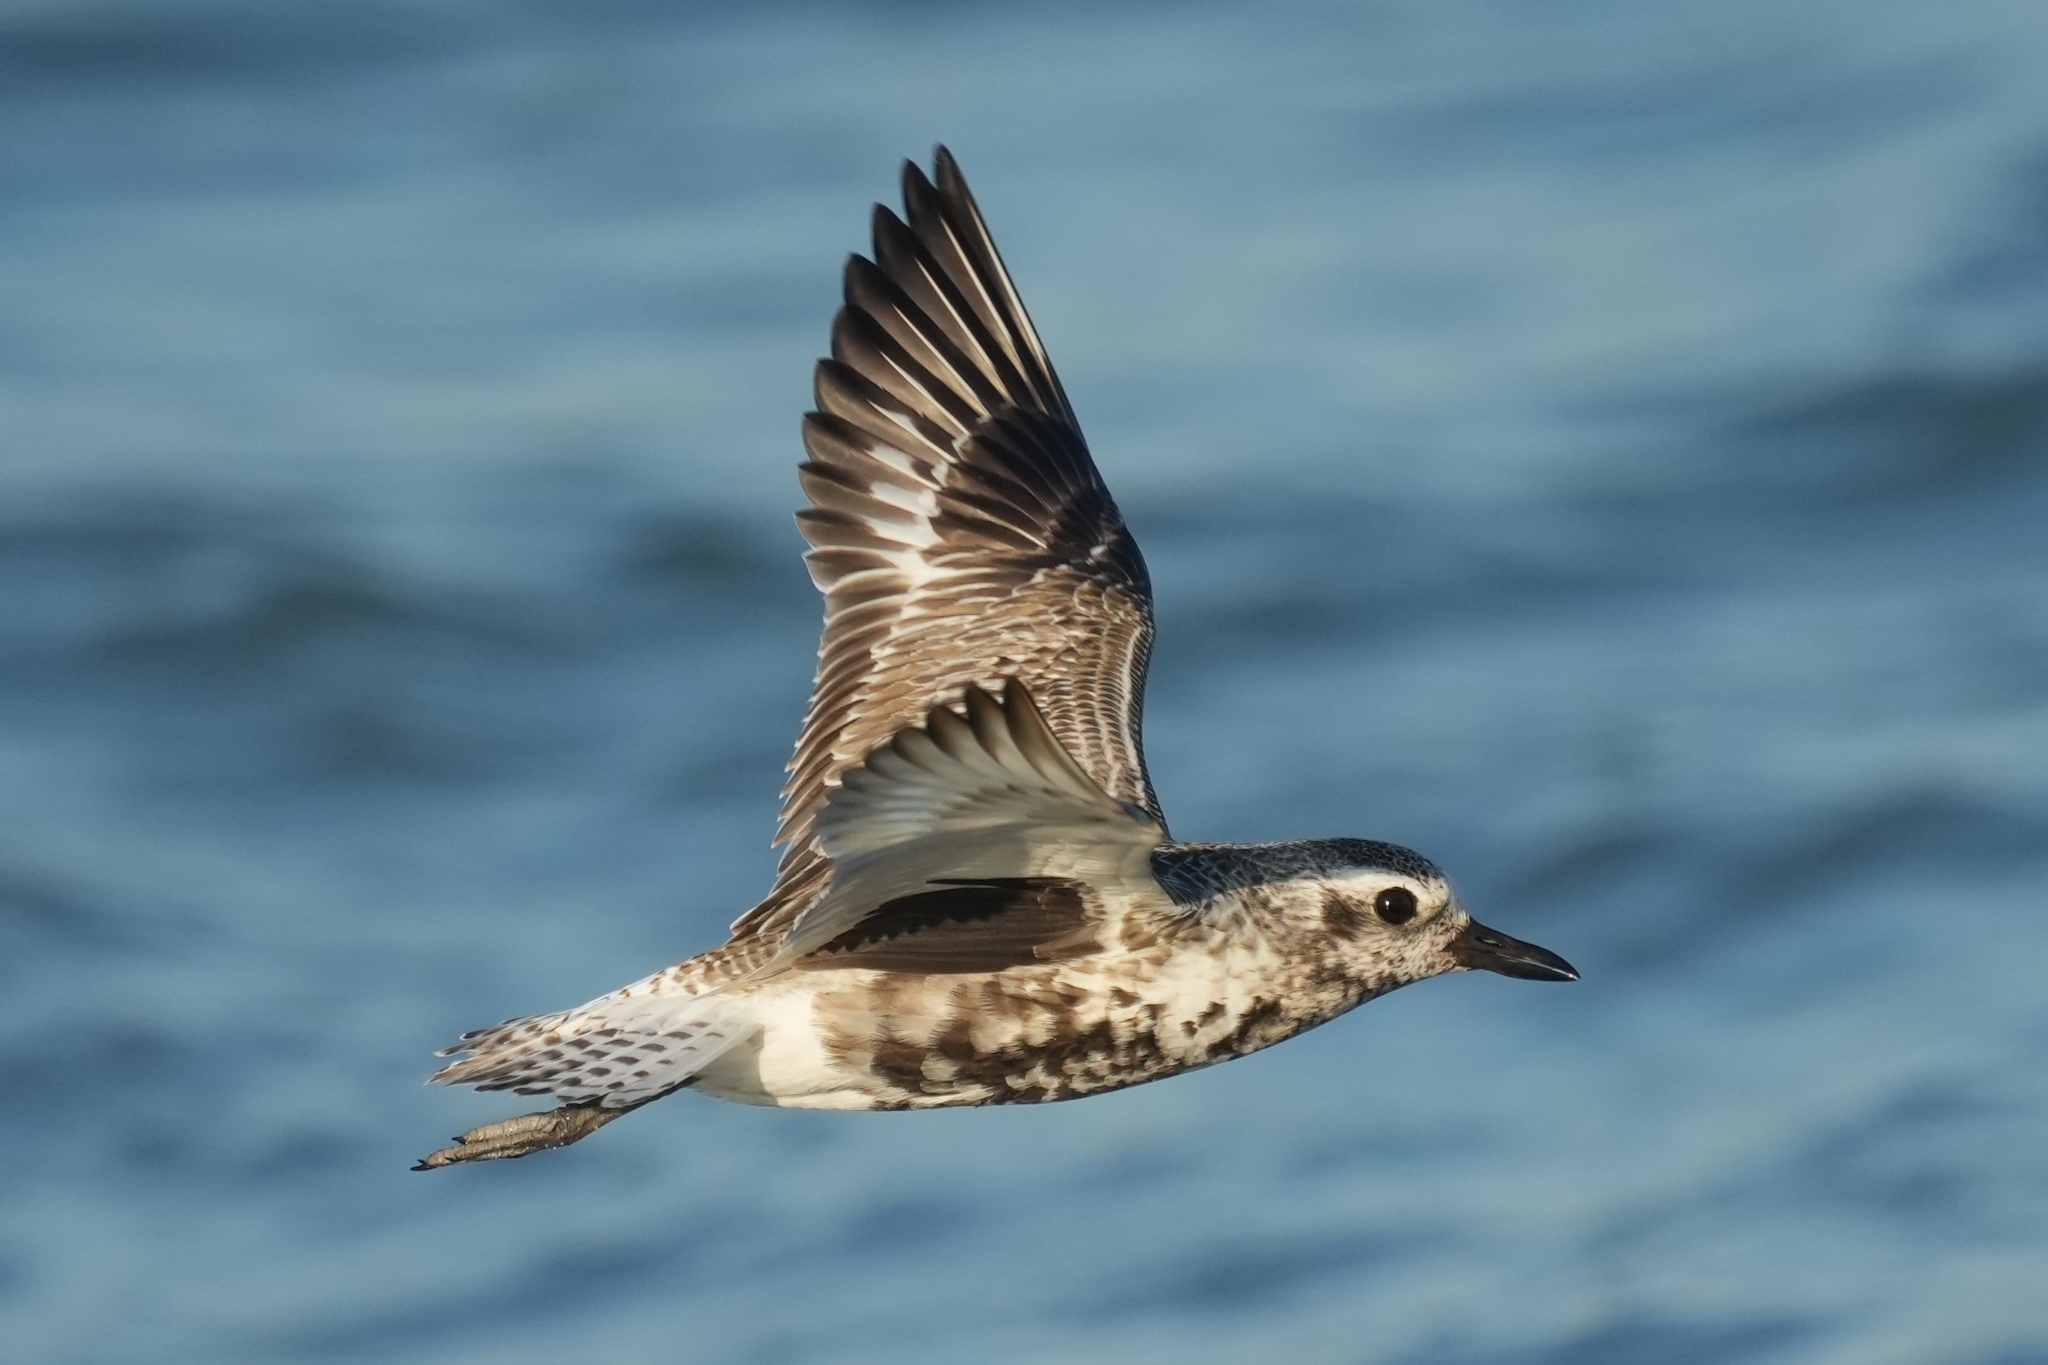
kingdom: Animalia
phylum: Chordata
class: Aves
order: Charadriiformes
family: Charadriidae
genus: Pluvialis
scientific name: Pluvialis squatarola
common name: Grey plover
